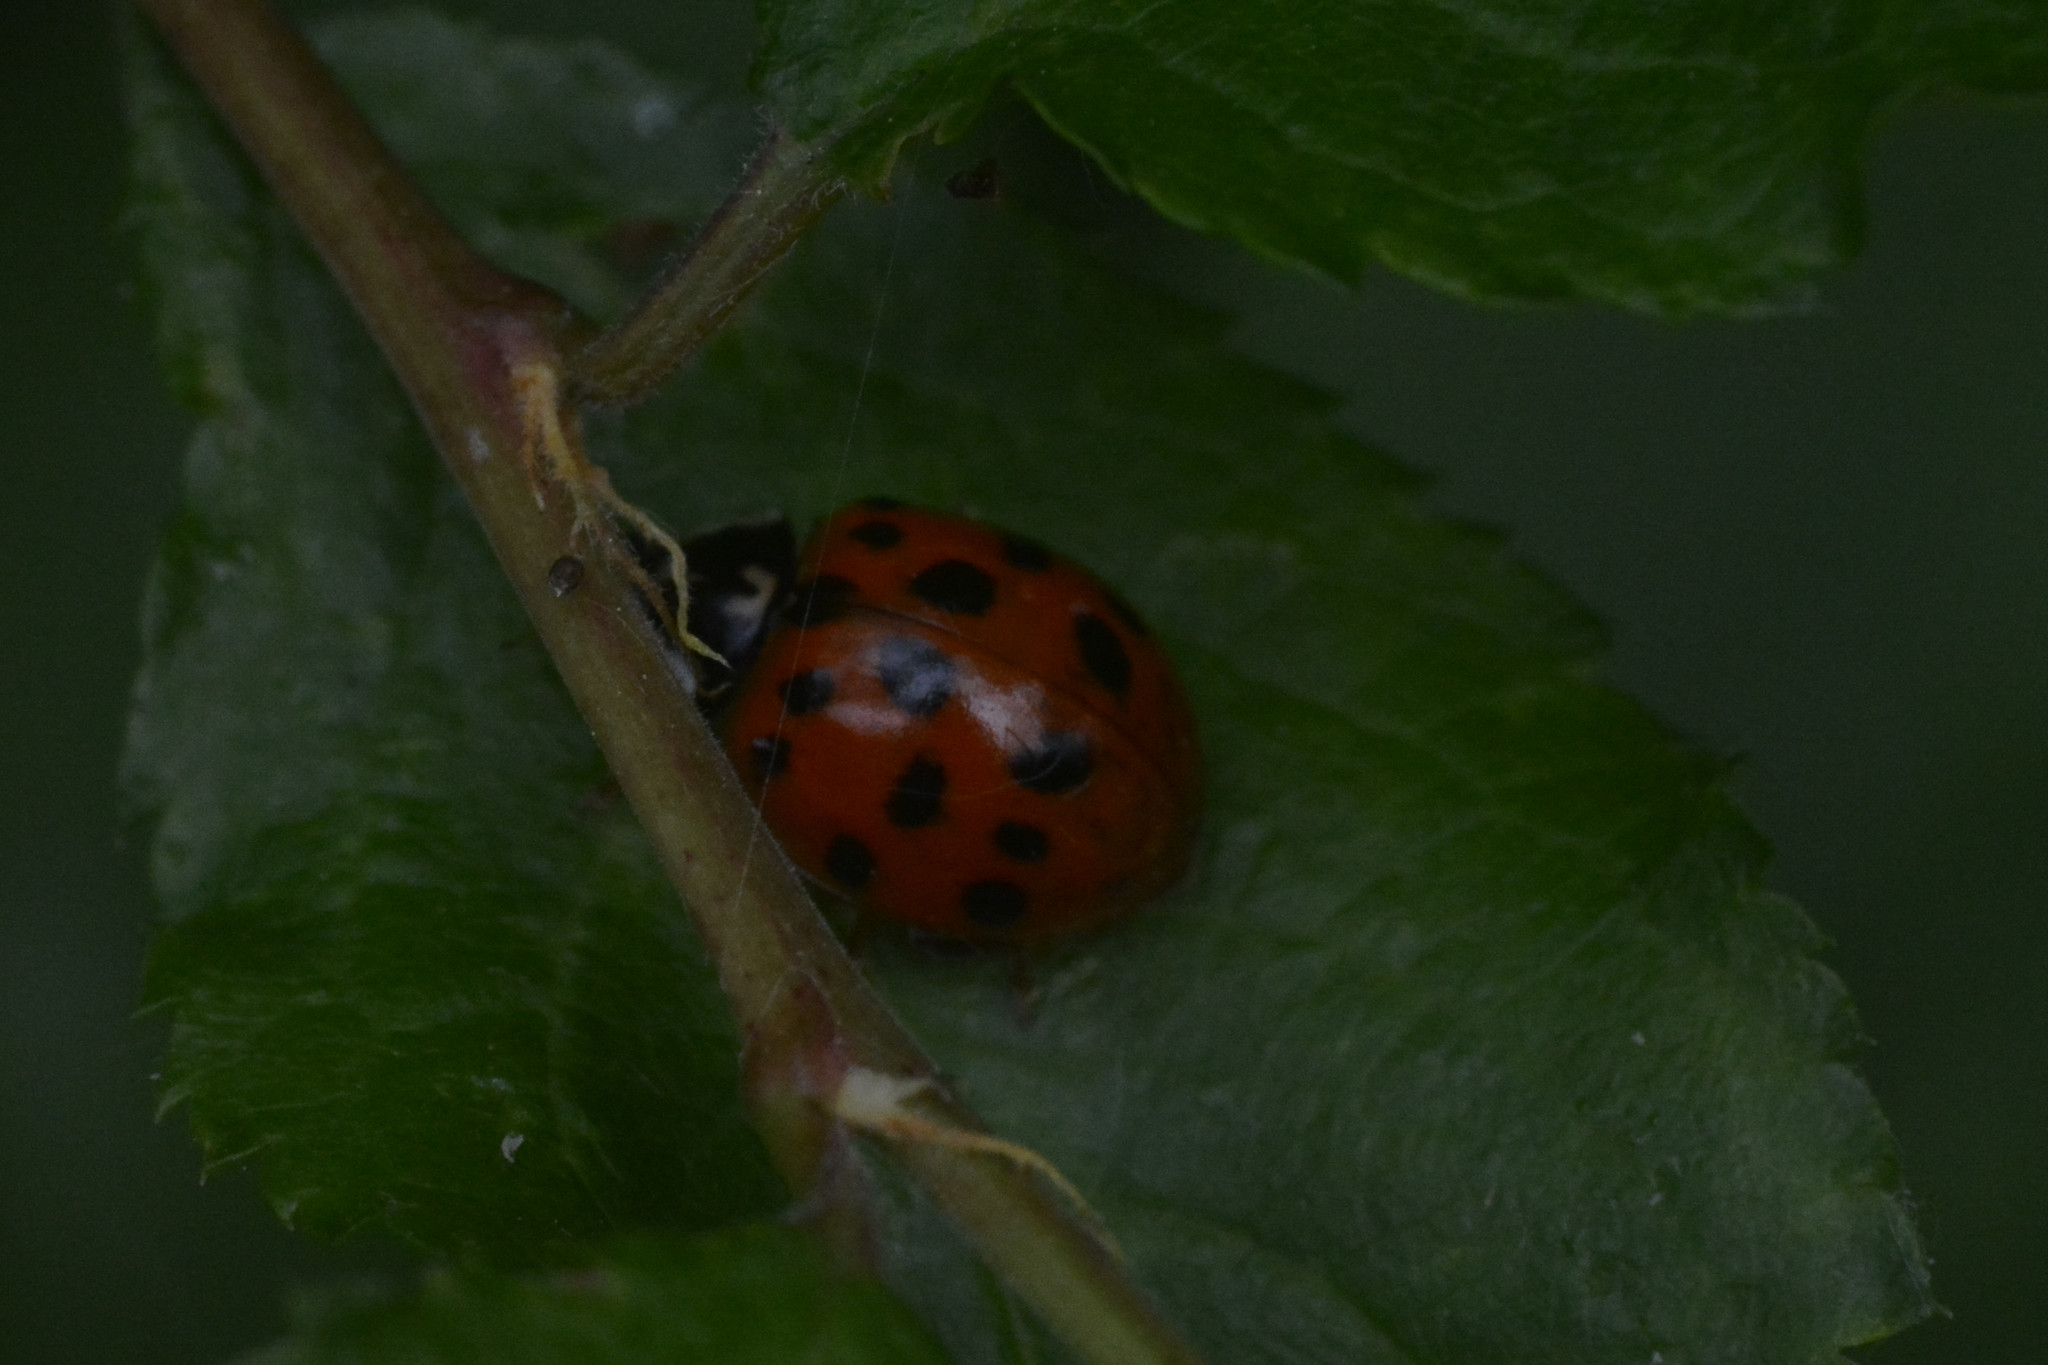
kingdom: Animalia
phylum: Arthropoda
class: Insecta
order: Coleoptera
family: Coccinellidae
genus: Harmonia
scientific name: Harmonia axyridis
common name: Harlequin ladybird
